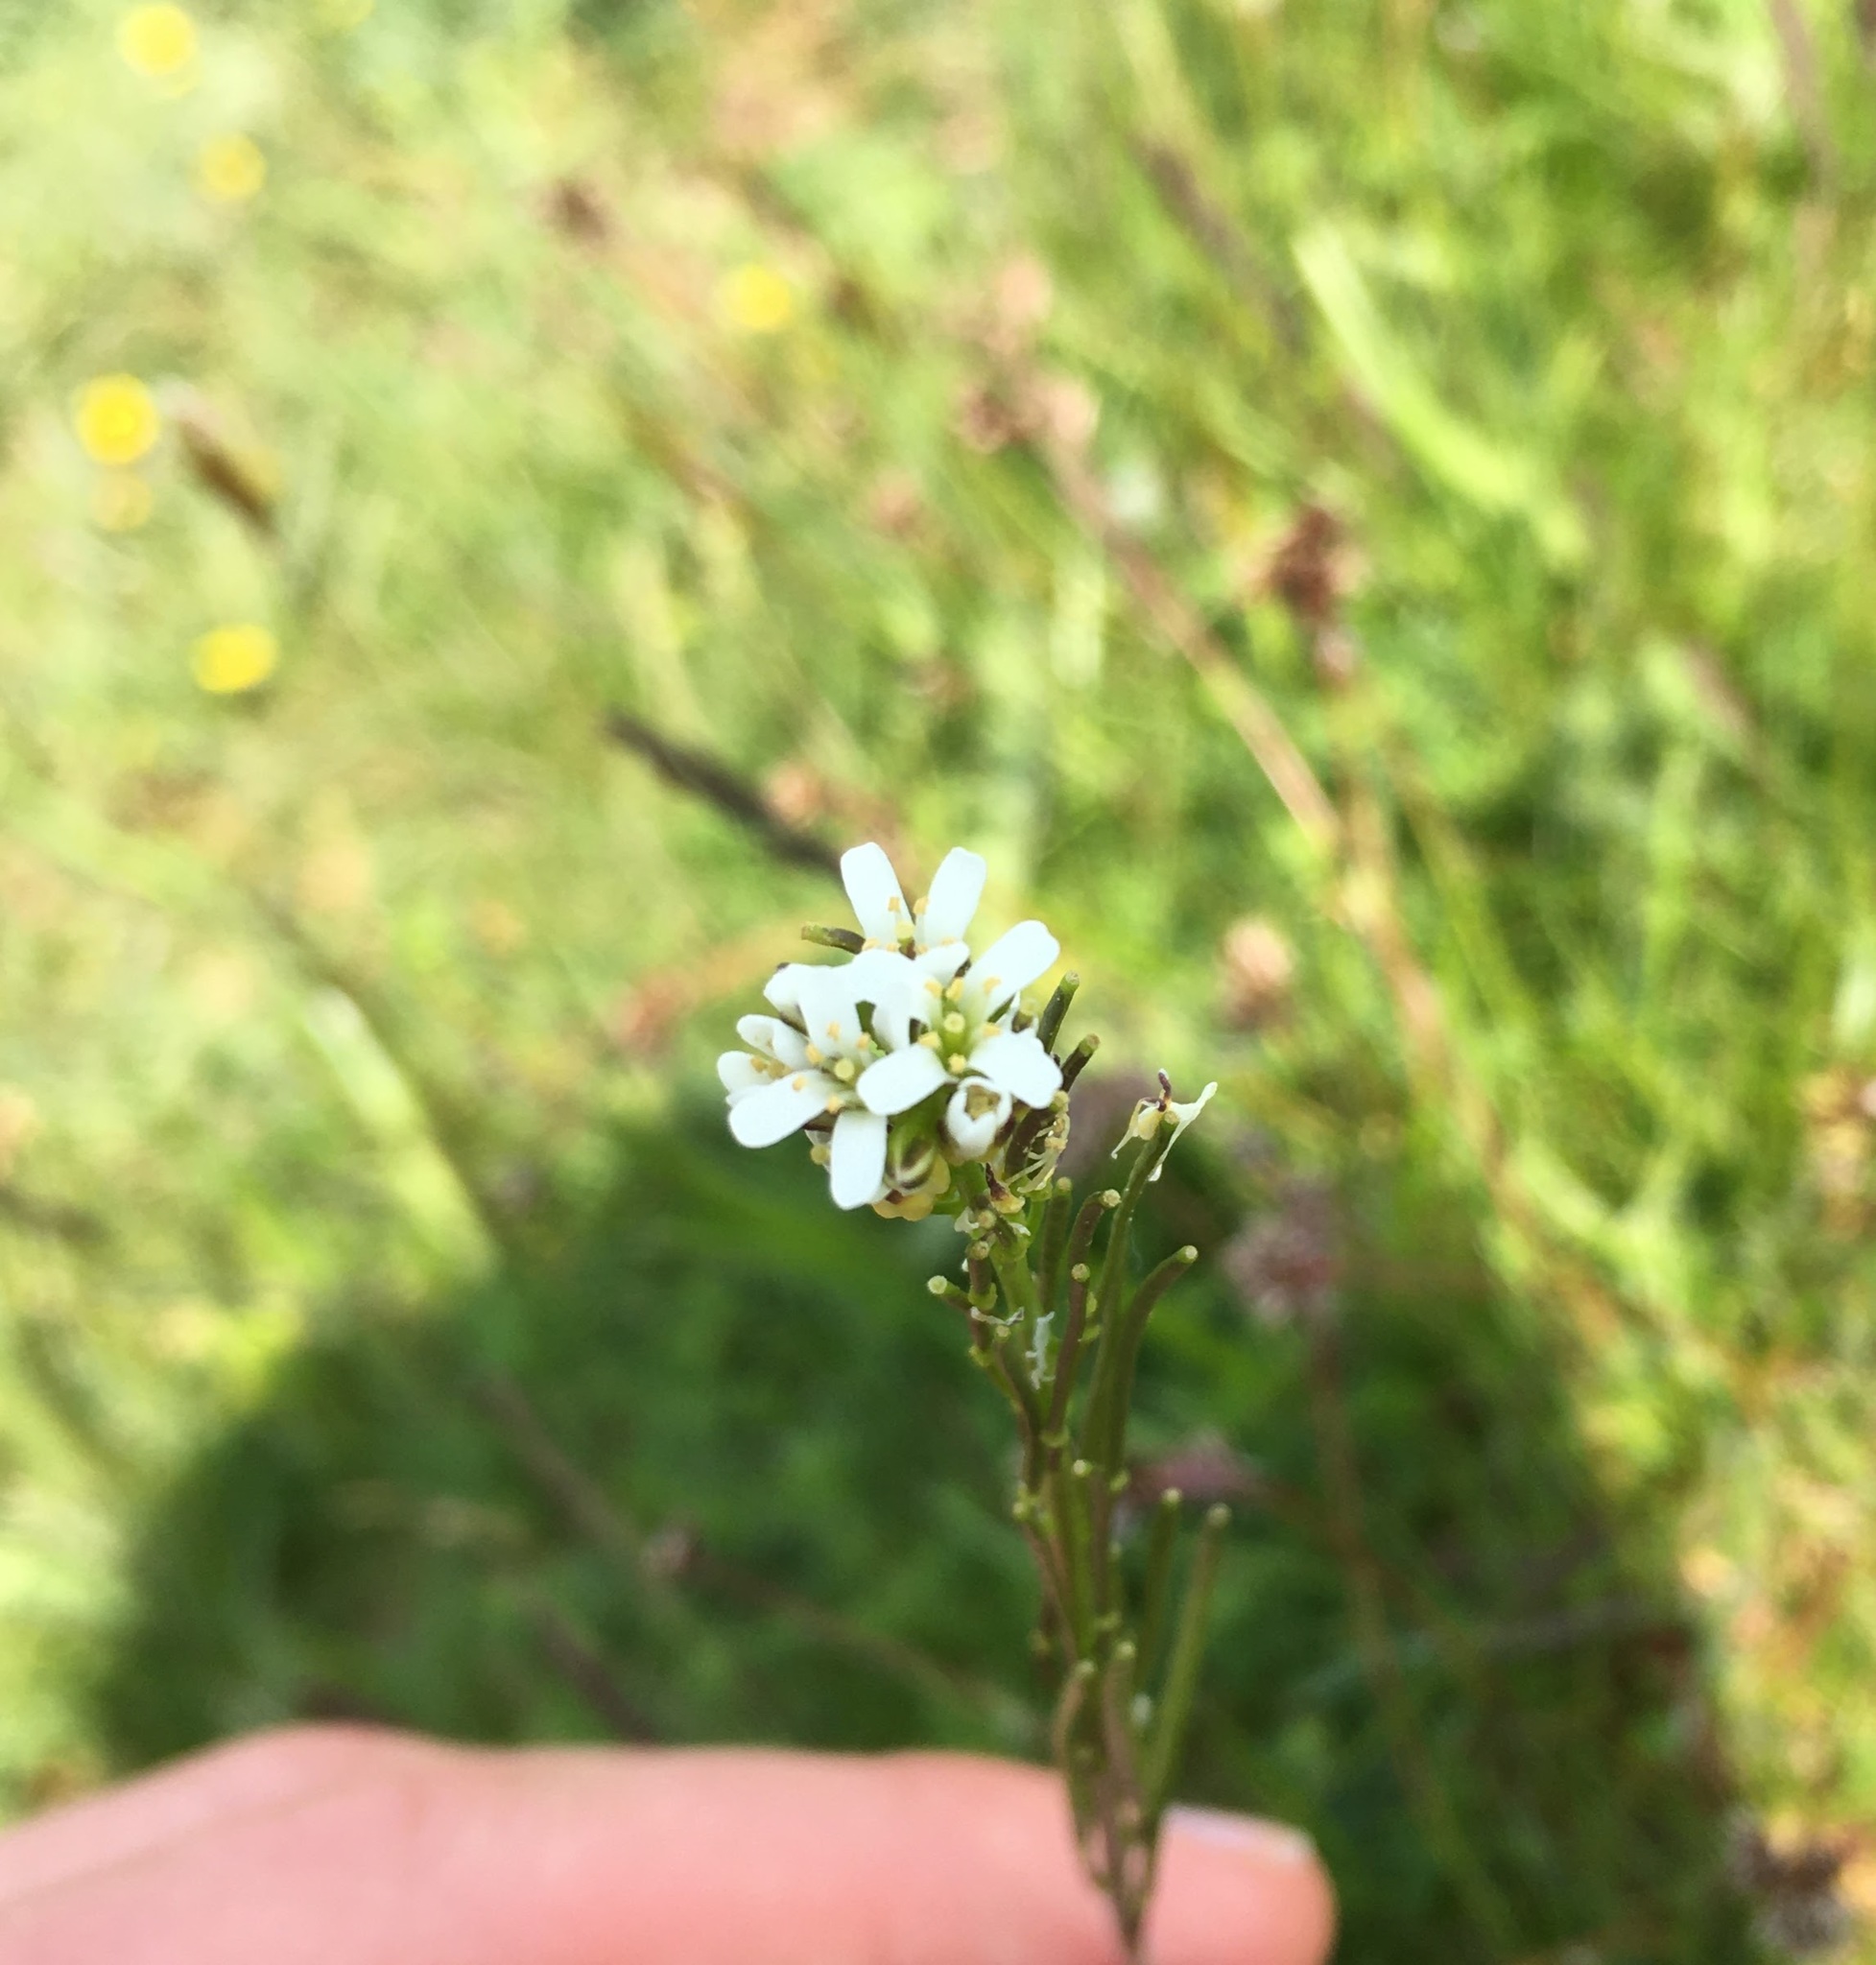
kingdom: Plantae
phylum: Tracheophyta
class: Magnoliopsida
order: Brassicales
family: Brassicaceae
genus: Arabis
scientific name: Arabis hirsuta
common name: Hairy rock-cress
